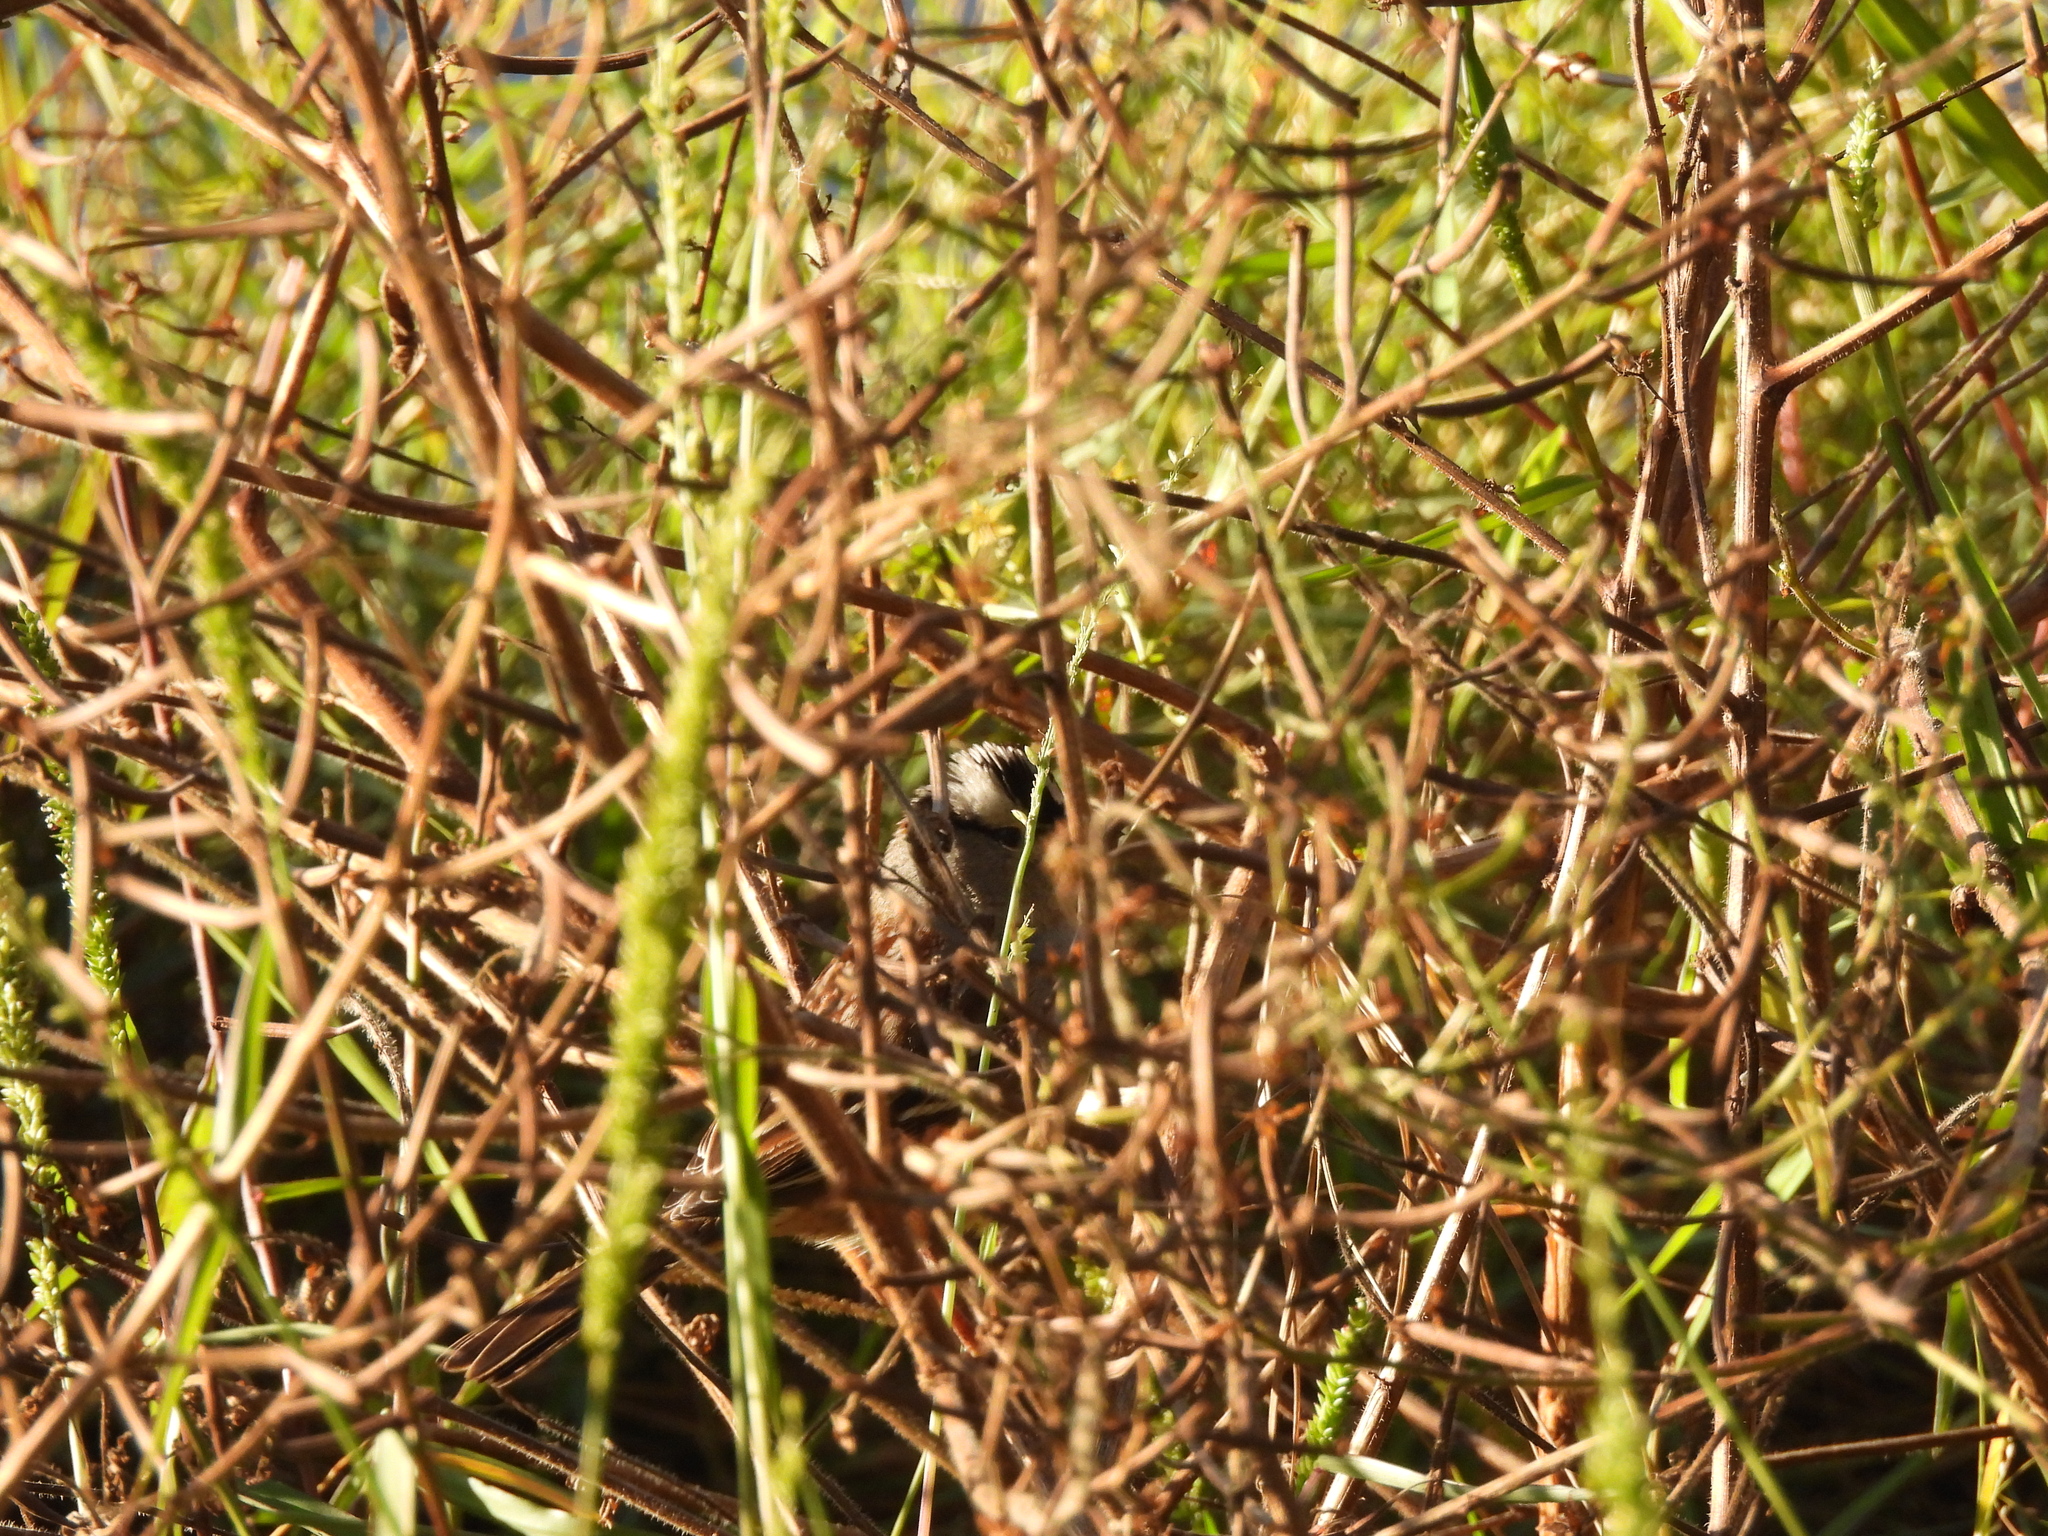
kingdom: Animalia
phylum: Chordata
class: Aves
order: Passeriformes
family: Passerellidae
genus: Zonotrichia
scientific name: Zonotrichia leucophrys
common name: White-crowned sparrow
